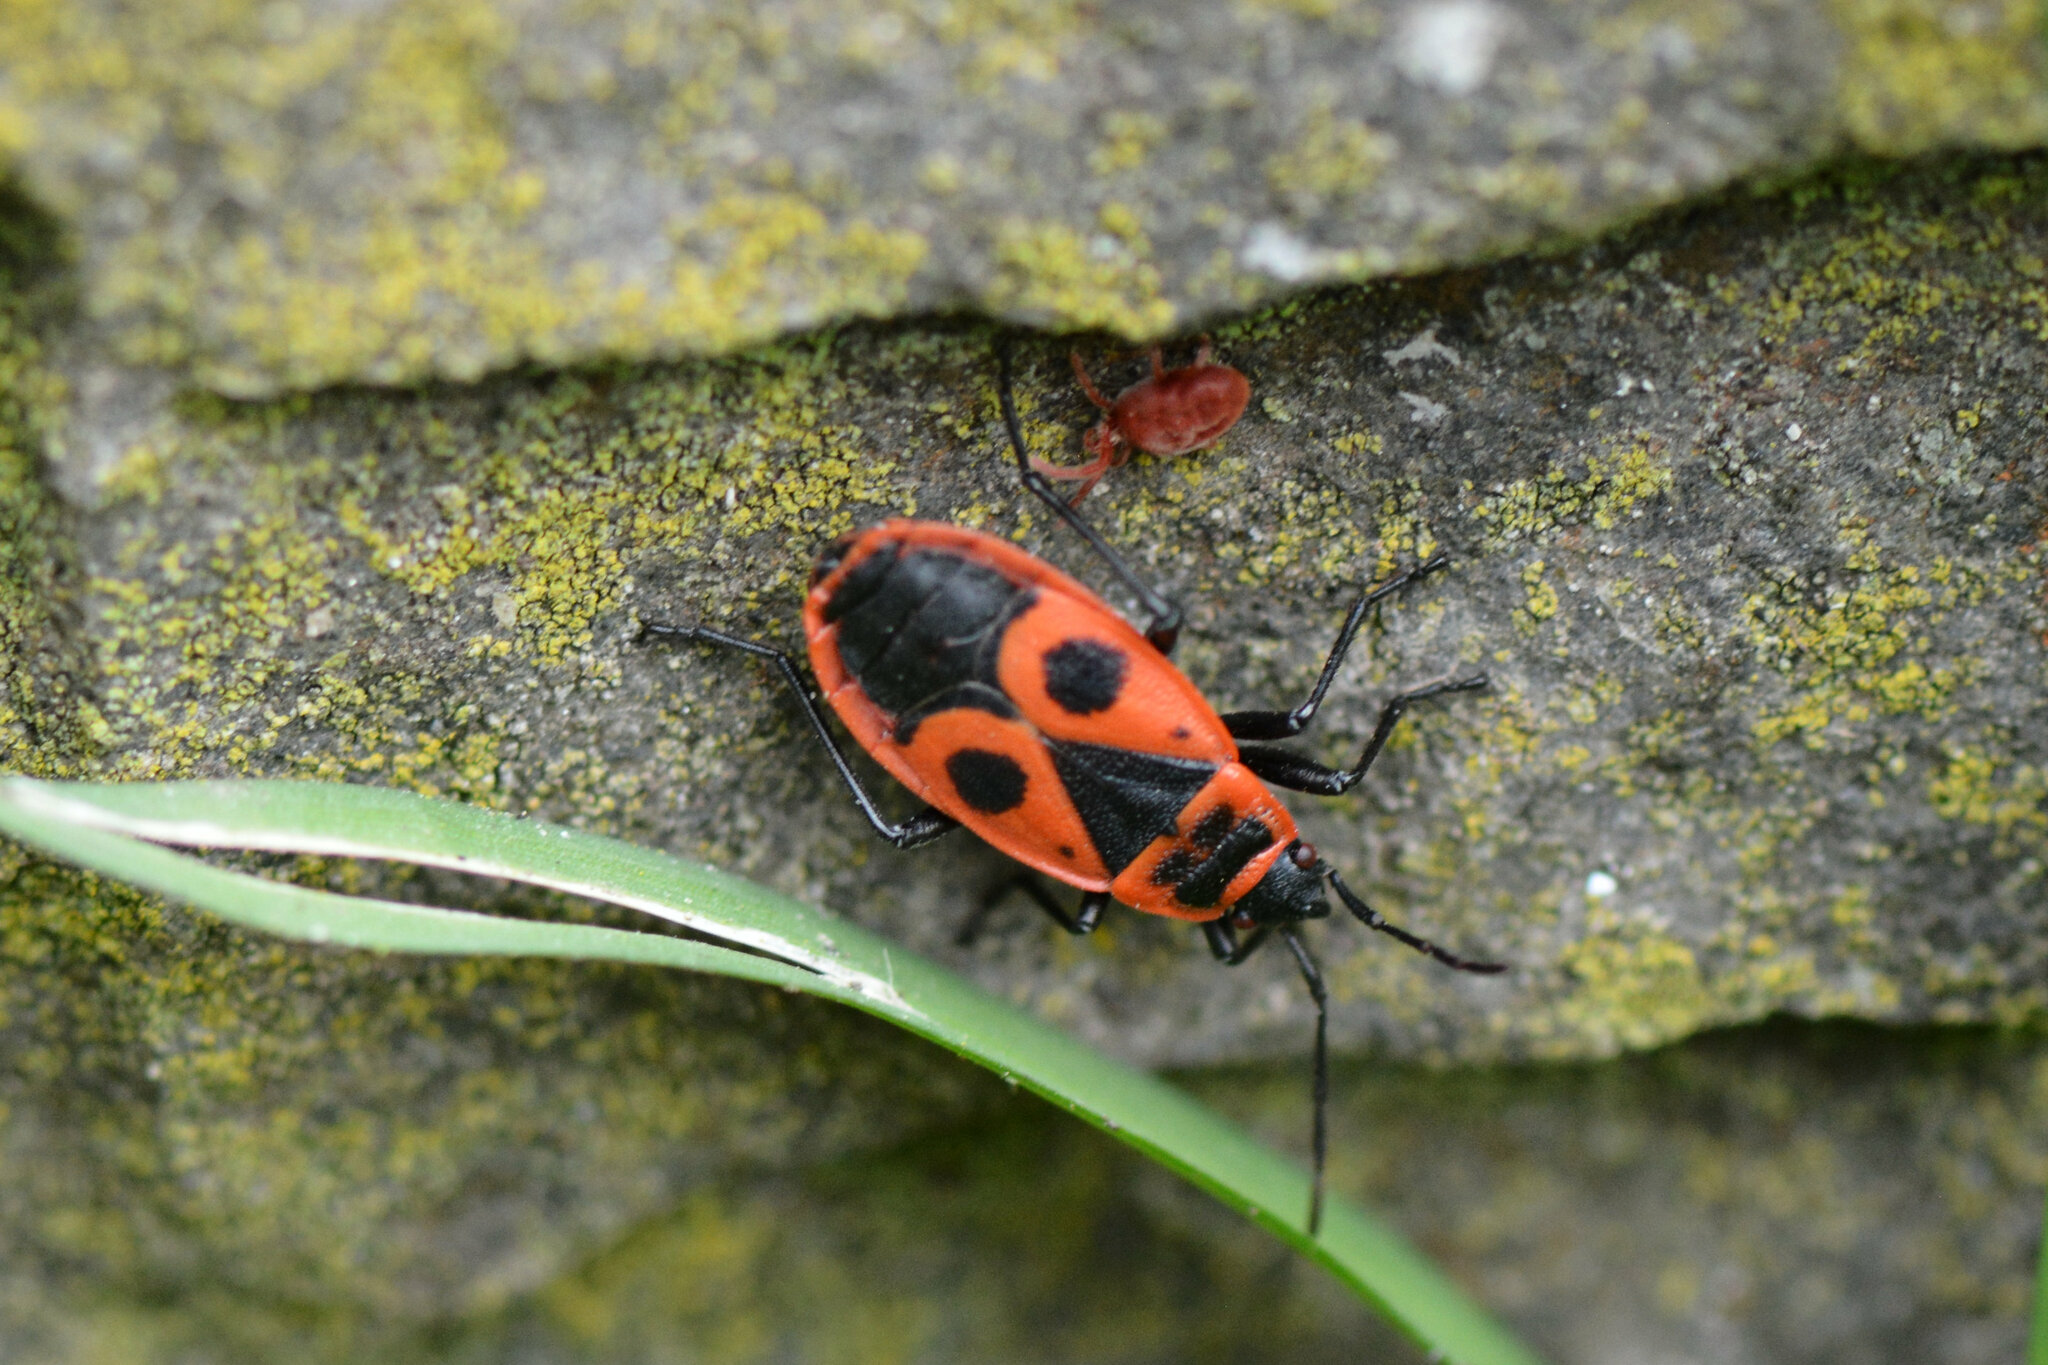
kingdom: Animalia
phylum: Arthropoda
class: Insecta
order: Hemiptera
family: Pyrrhocoridae
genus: Pyrrhocoris
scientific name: Pyrrhocoris apterus
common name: Firebug
